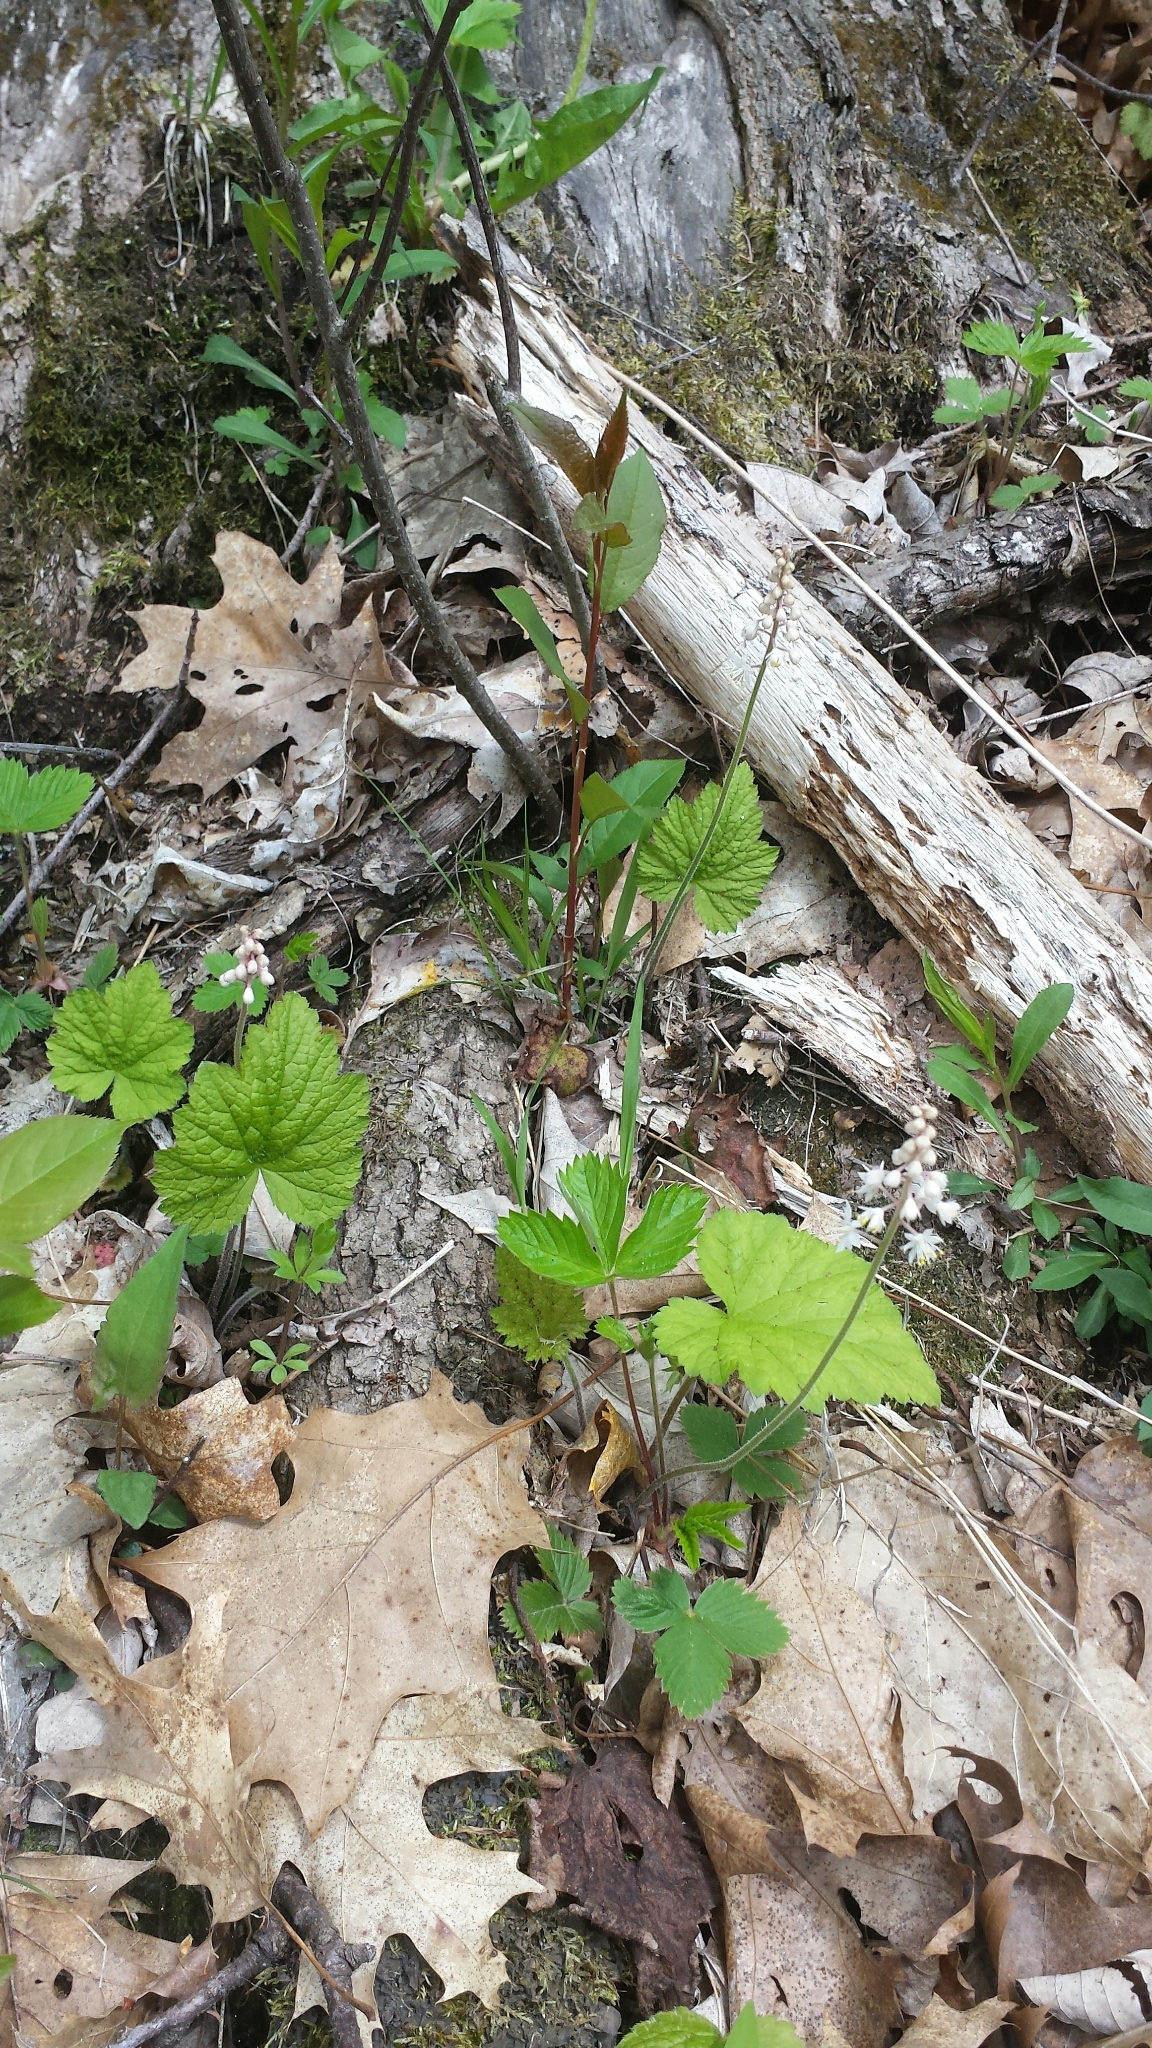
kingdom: Plantae
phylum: Tracheophyta
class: Magnoliopsida
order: Saxifragales
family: Saxifragaceae
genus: Tiarella
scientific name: Tiarella stolonifera
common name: Stoloniferous foamflower
